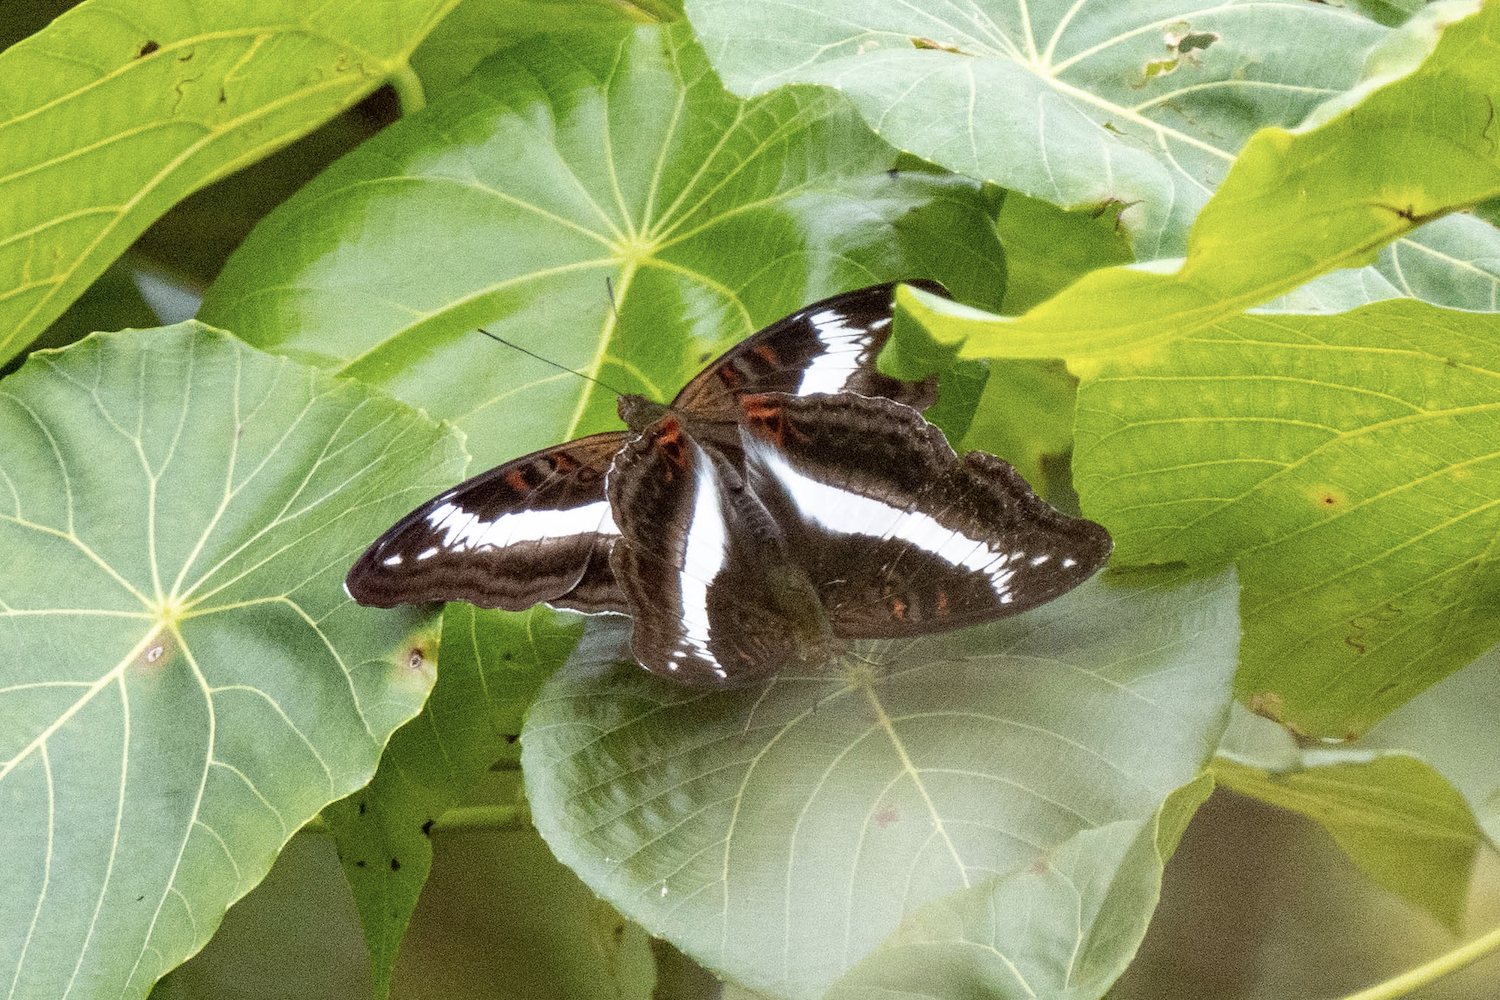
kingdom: Animalia
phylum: Arthropoda
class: Insecta
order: Lepidoptera
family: Nymphalidae
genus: Limenitis
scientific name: Limenitis Parasarpa dudu
